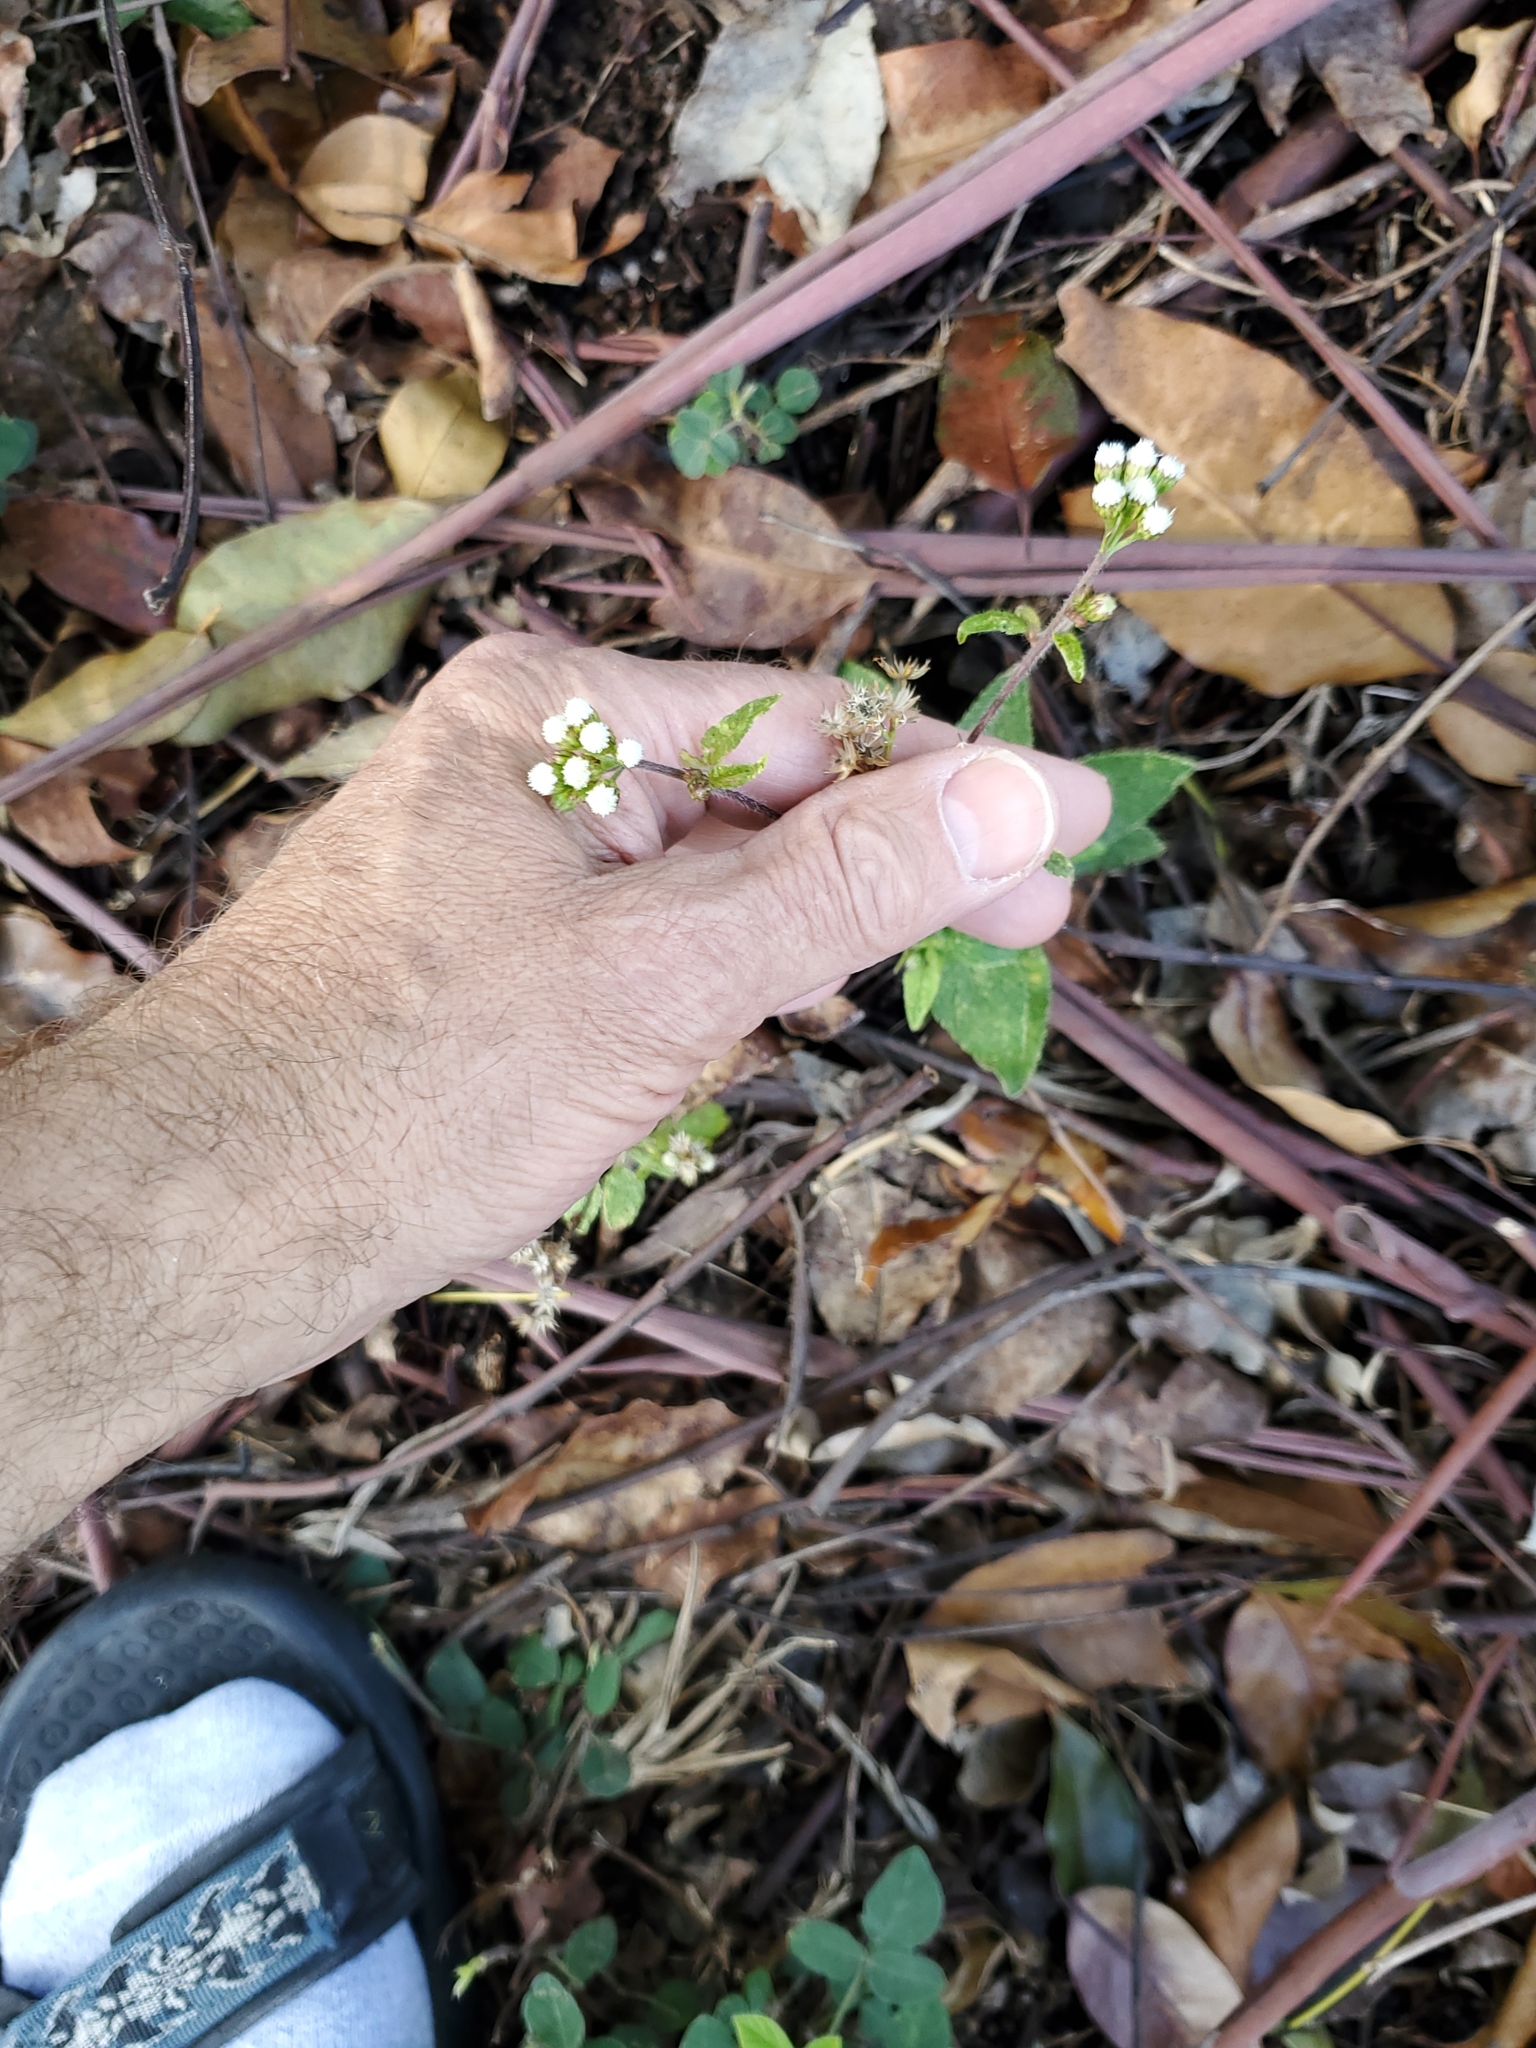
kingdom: Plantae
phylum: Tracheophyta
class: Magnoliopsida
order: Asterales
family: Asteraceae
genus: Ageratum
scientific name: Ageratum conyzoides
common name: Tropical whiteweed
